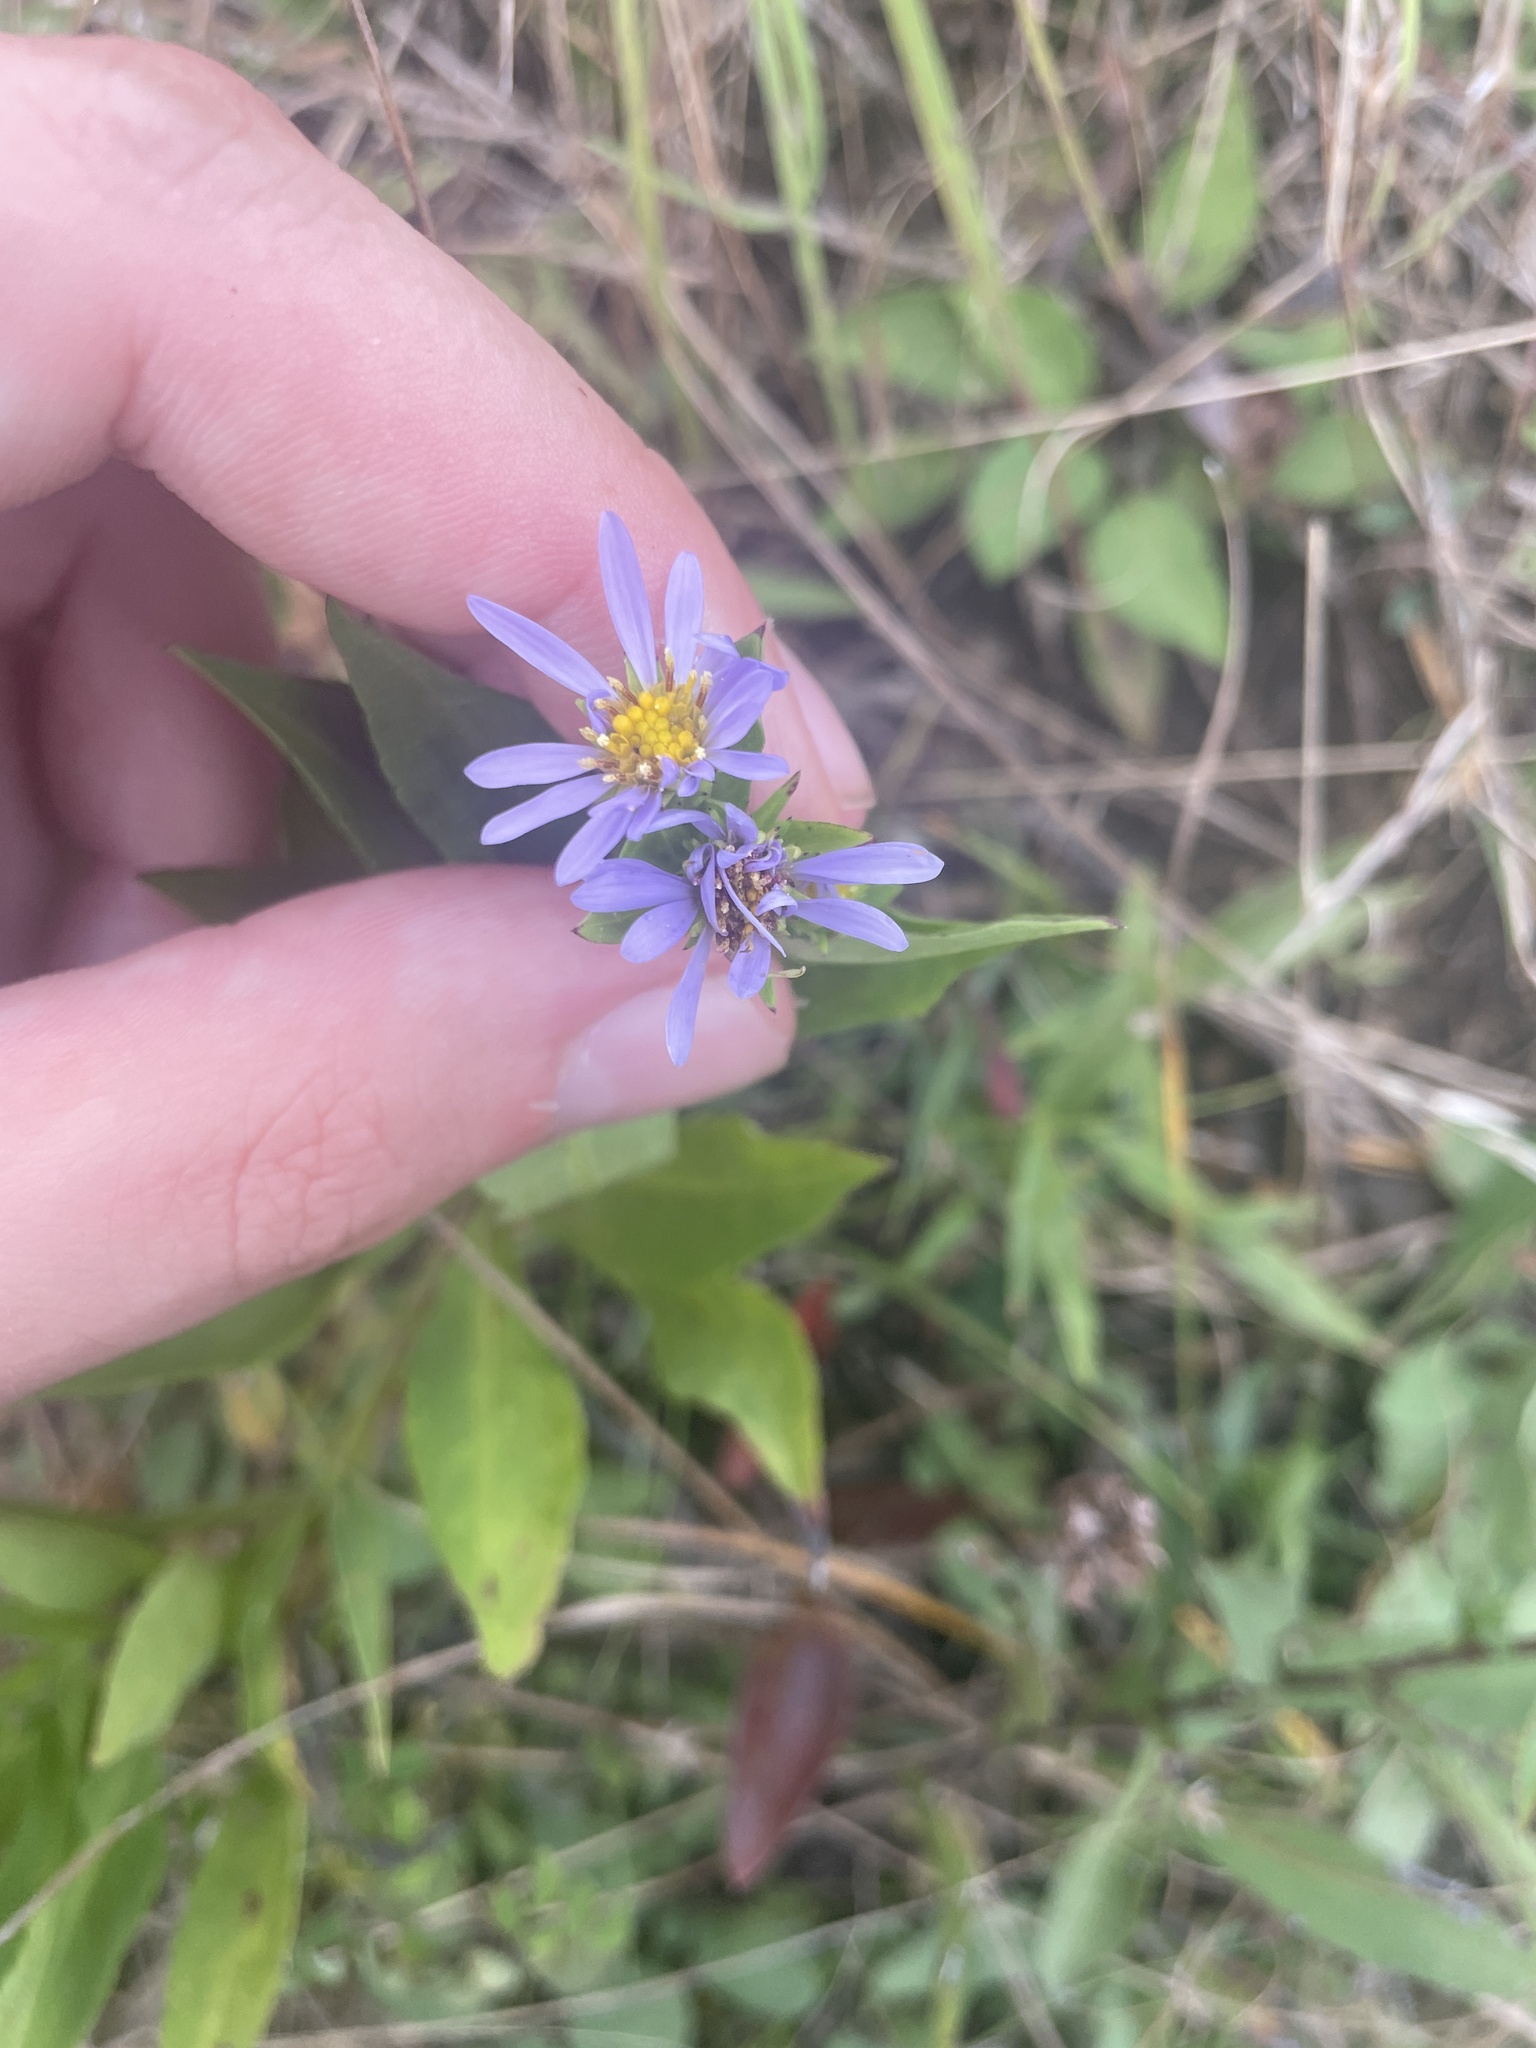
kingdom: Plantae
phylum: Tracheophyta
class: Magnoliopsida
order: Asterales
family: Asteraceae
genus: Symphyotrichum
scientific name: Symphyotrichum rhiannon
